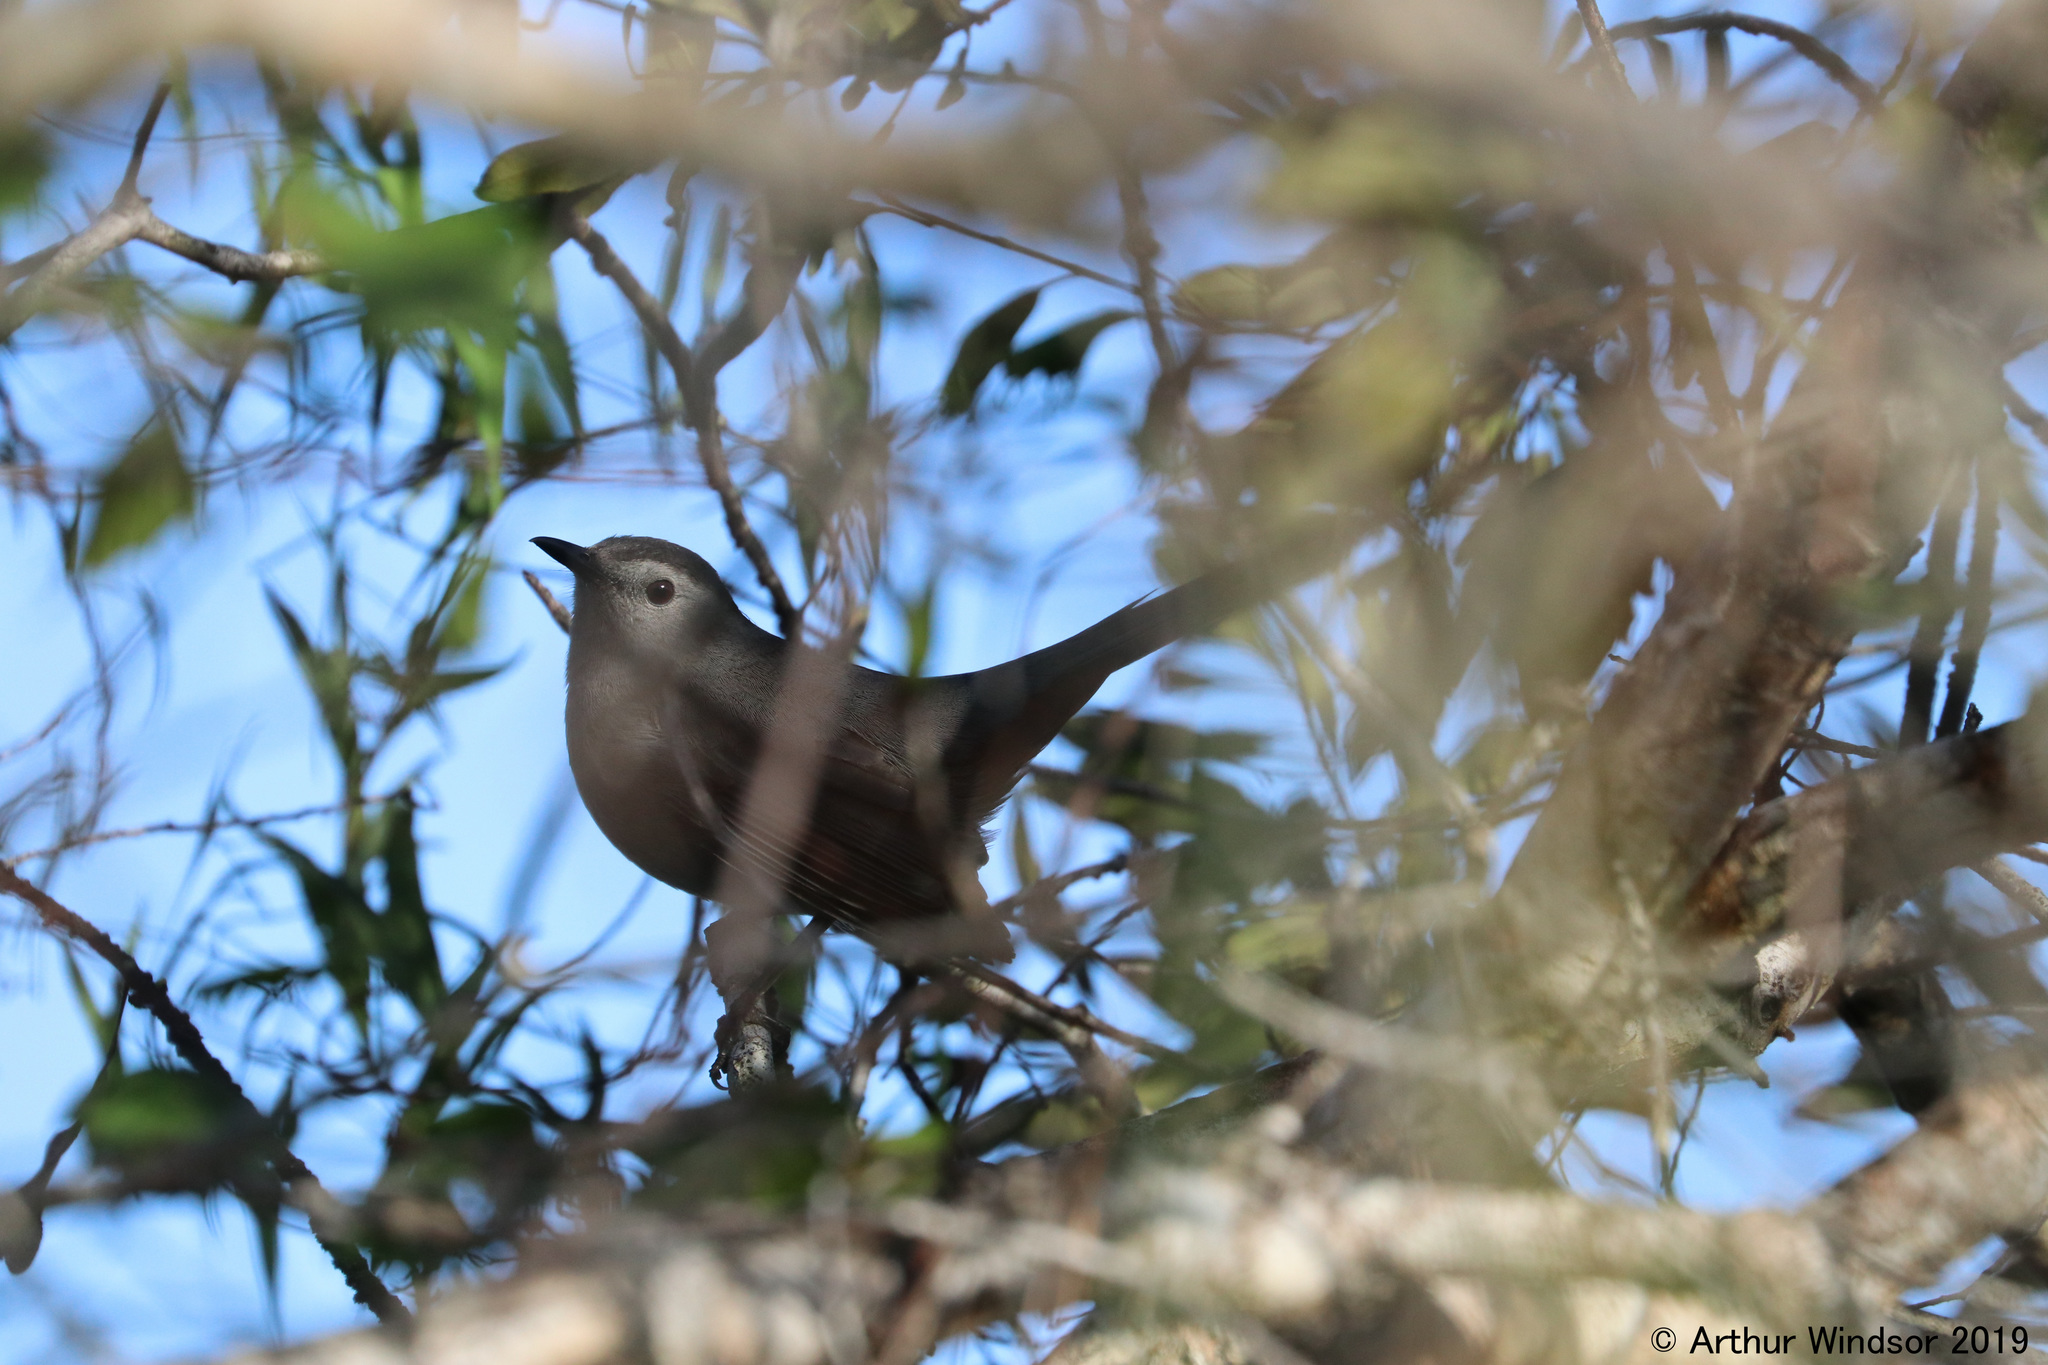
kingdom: Animalia
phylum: Chordata
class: Aves
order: Passeriformes
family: Mimidae
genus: Dumetella
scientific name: Dumetella carolinensis
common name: Gray catbird
